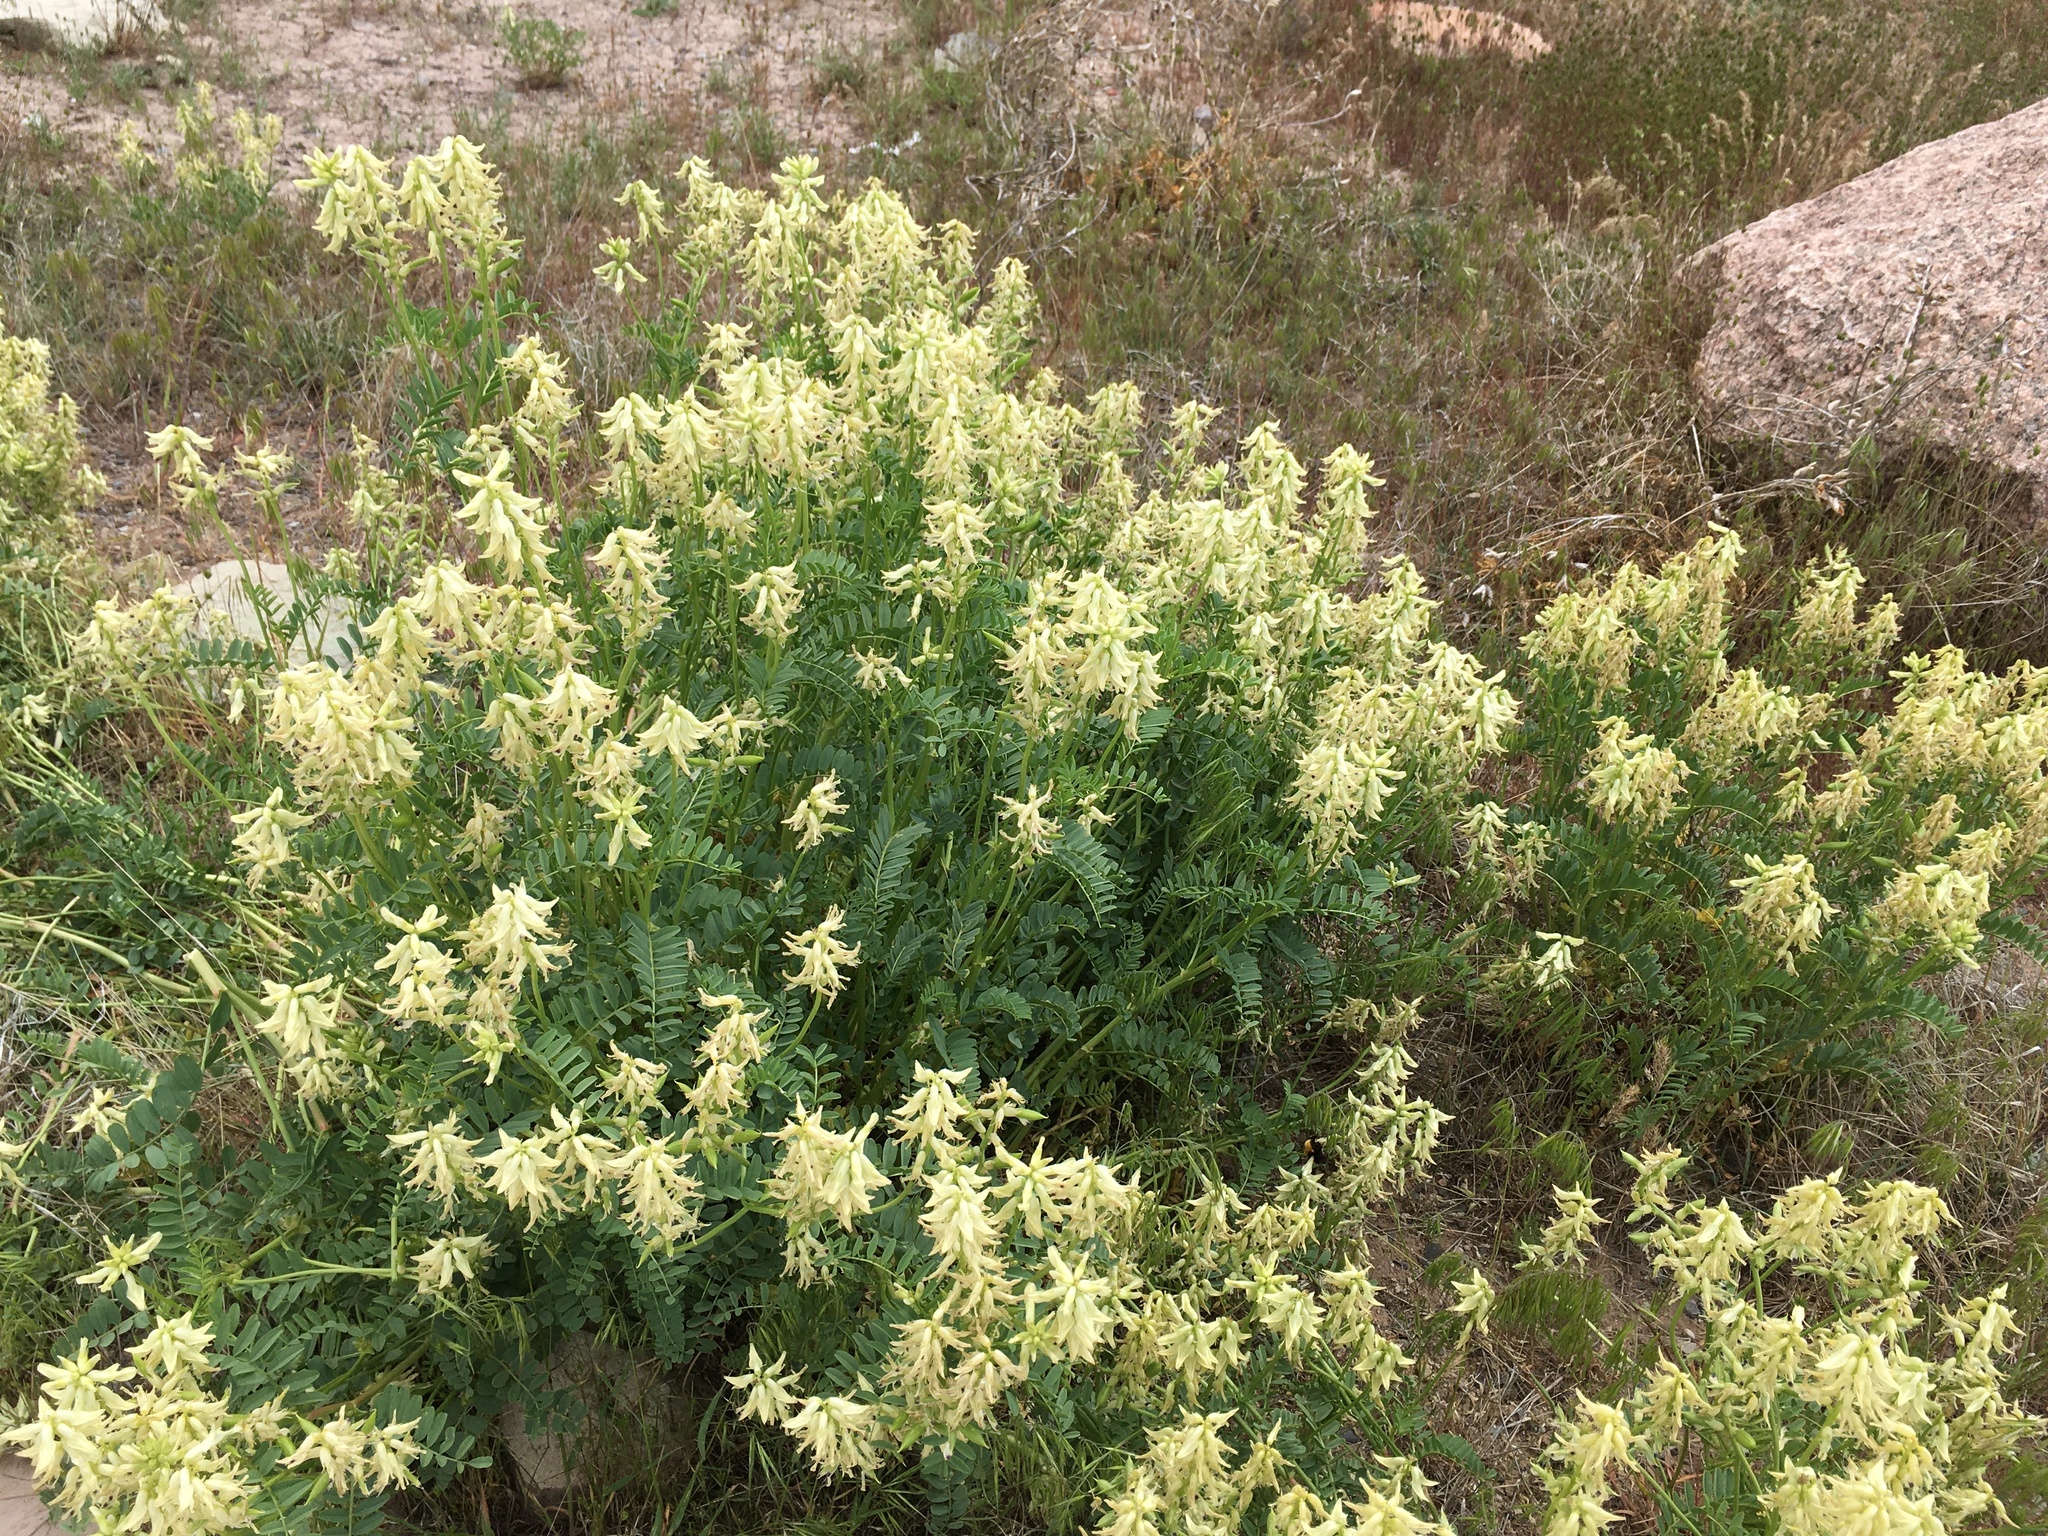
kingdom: Plantae
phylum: Tracheophyta
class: Magnoliopsida
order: Fabales
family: Fabaceae
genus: Astragalus
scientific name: Astragalus praelongus
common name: Stinking milk-vetch
